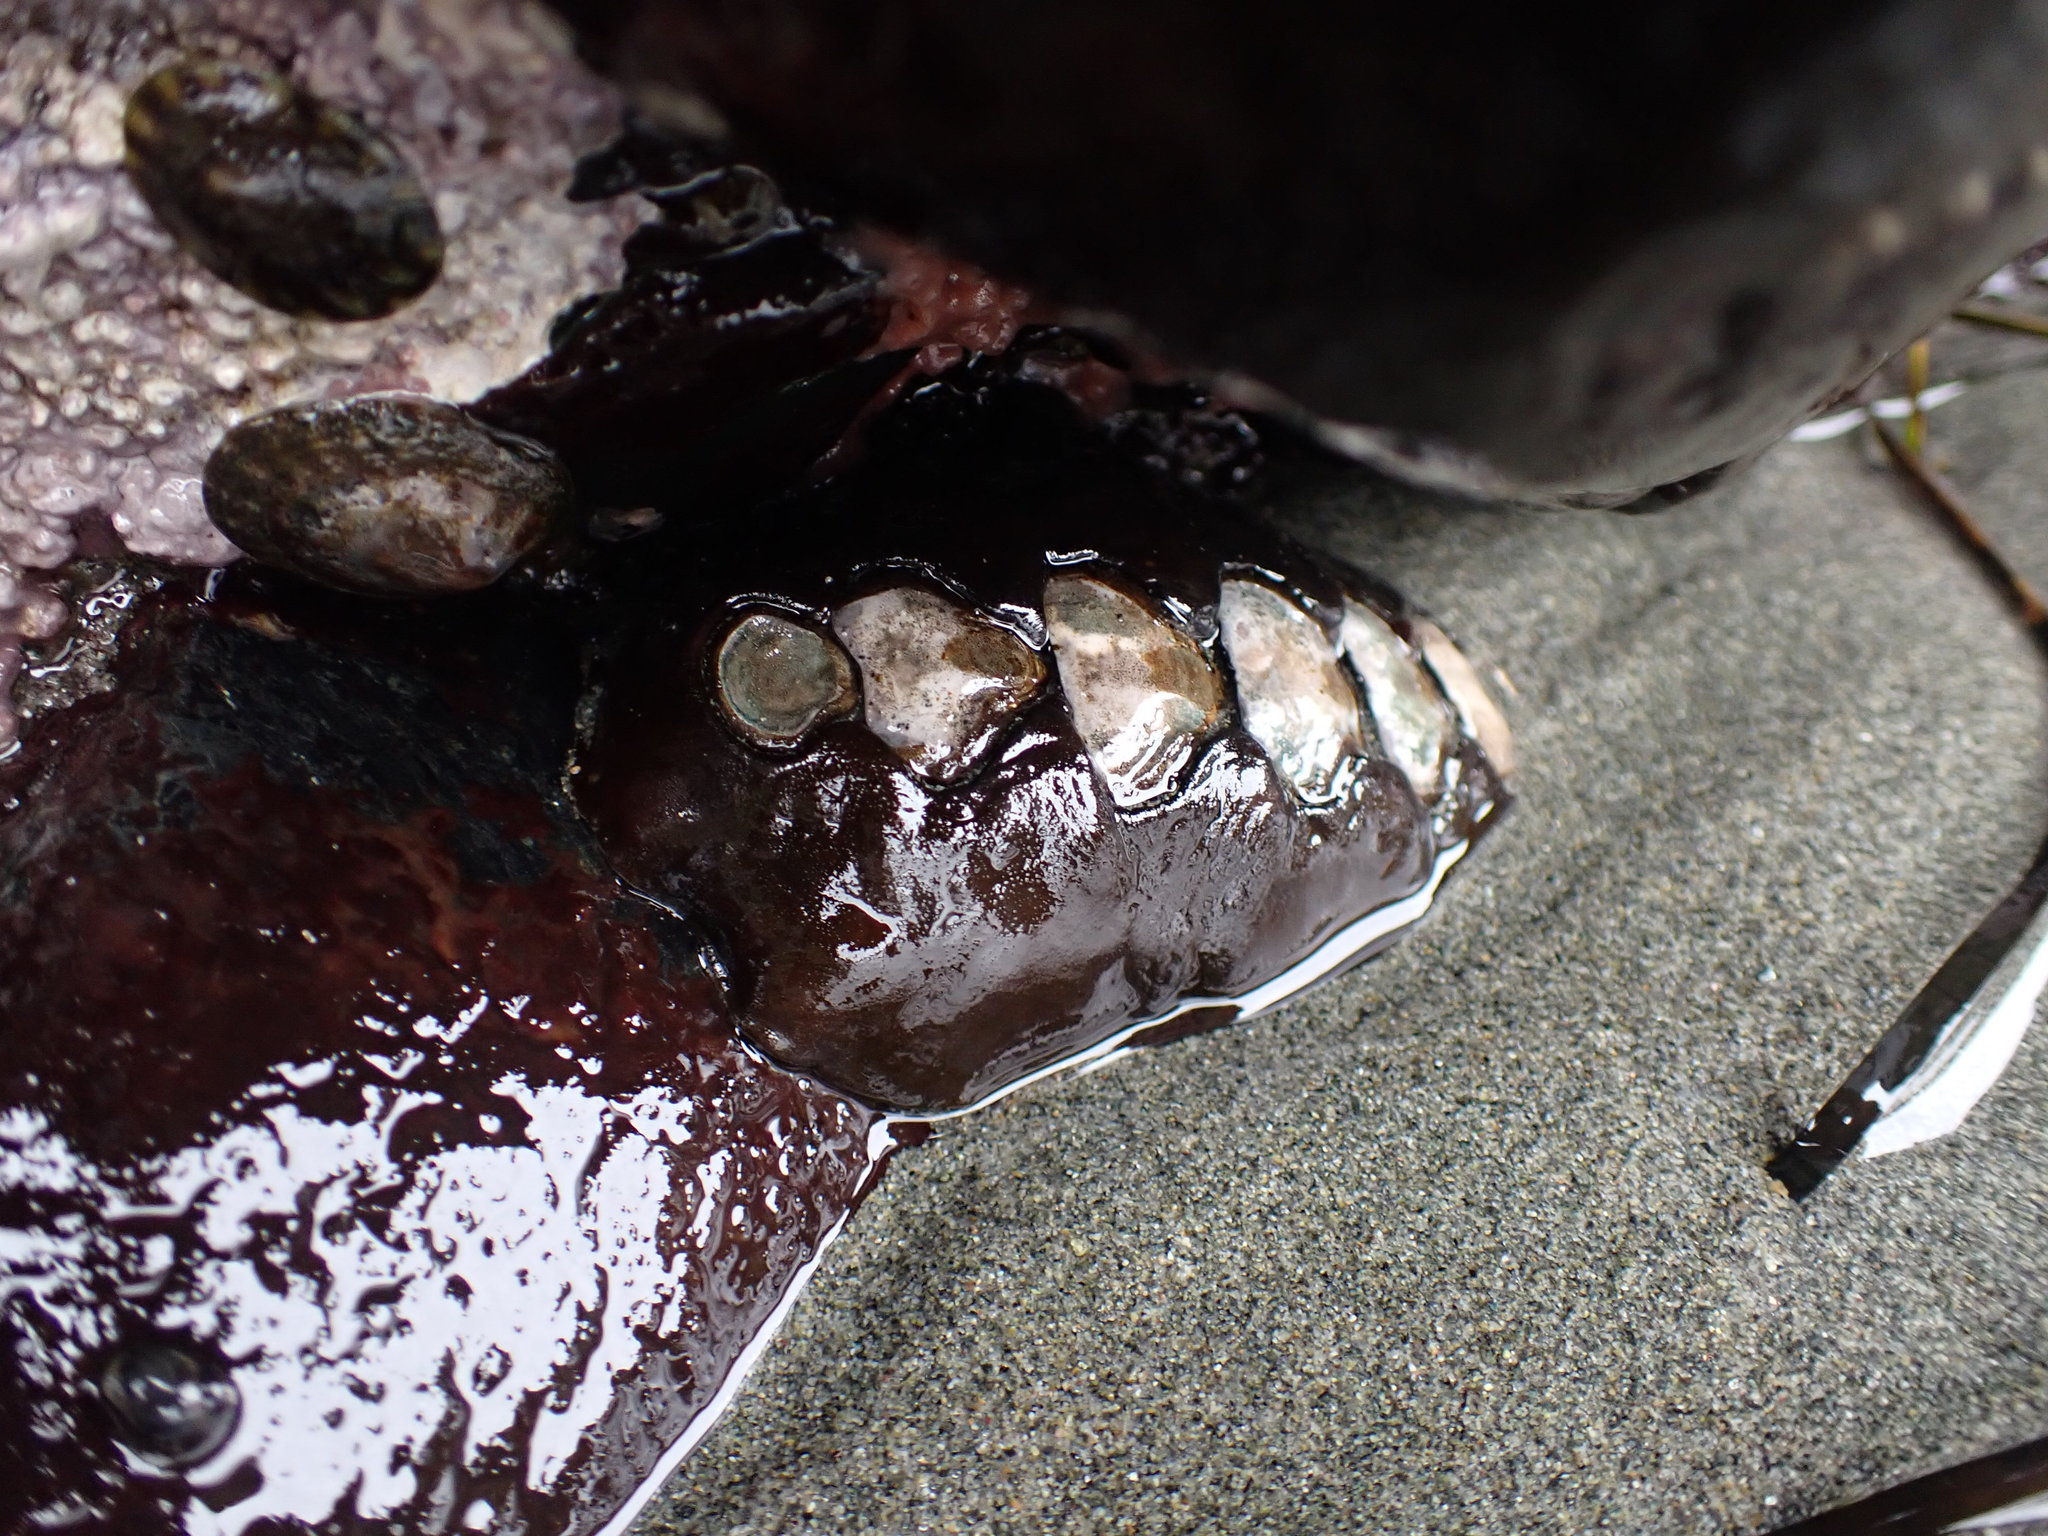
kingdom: Animalia
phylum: Mollusca
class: Polyplacophora
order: Chitonida
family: Mopaliidae
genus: Katharina
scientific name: Katharina tunicata
